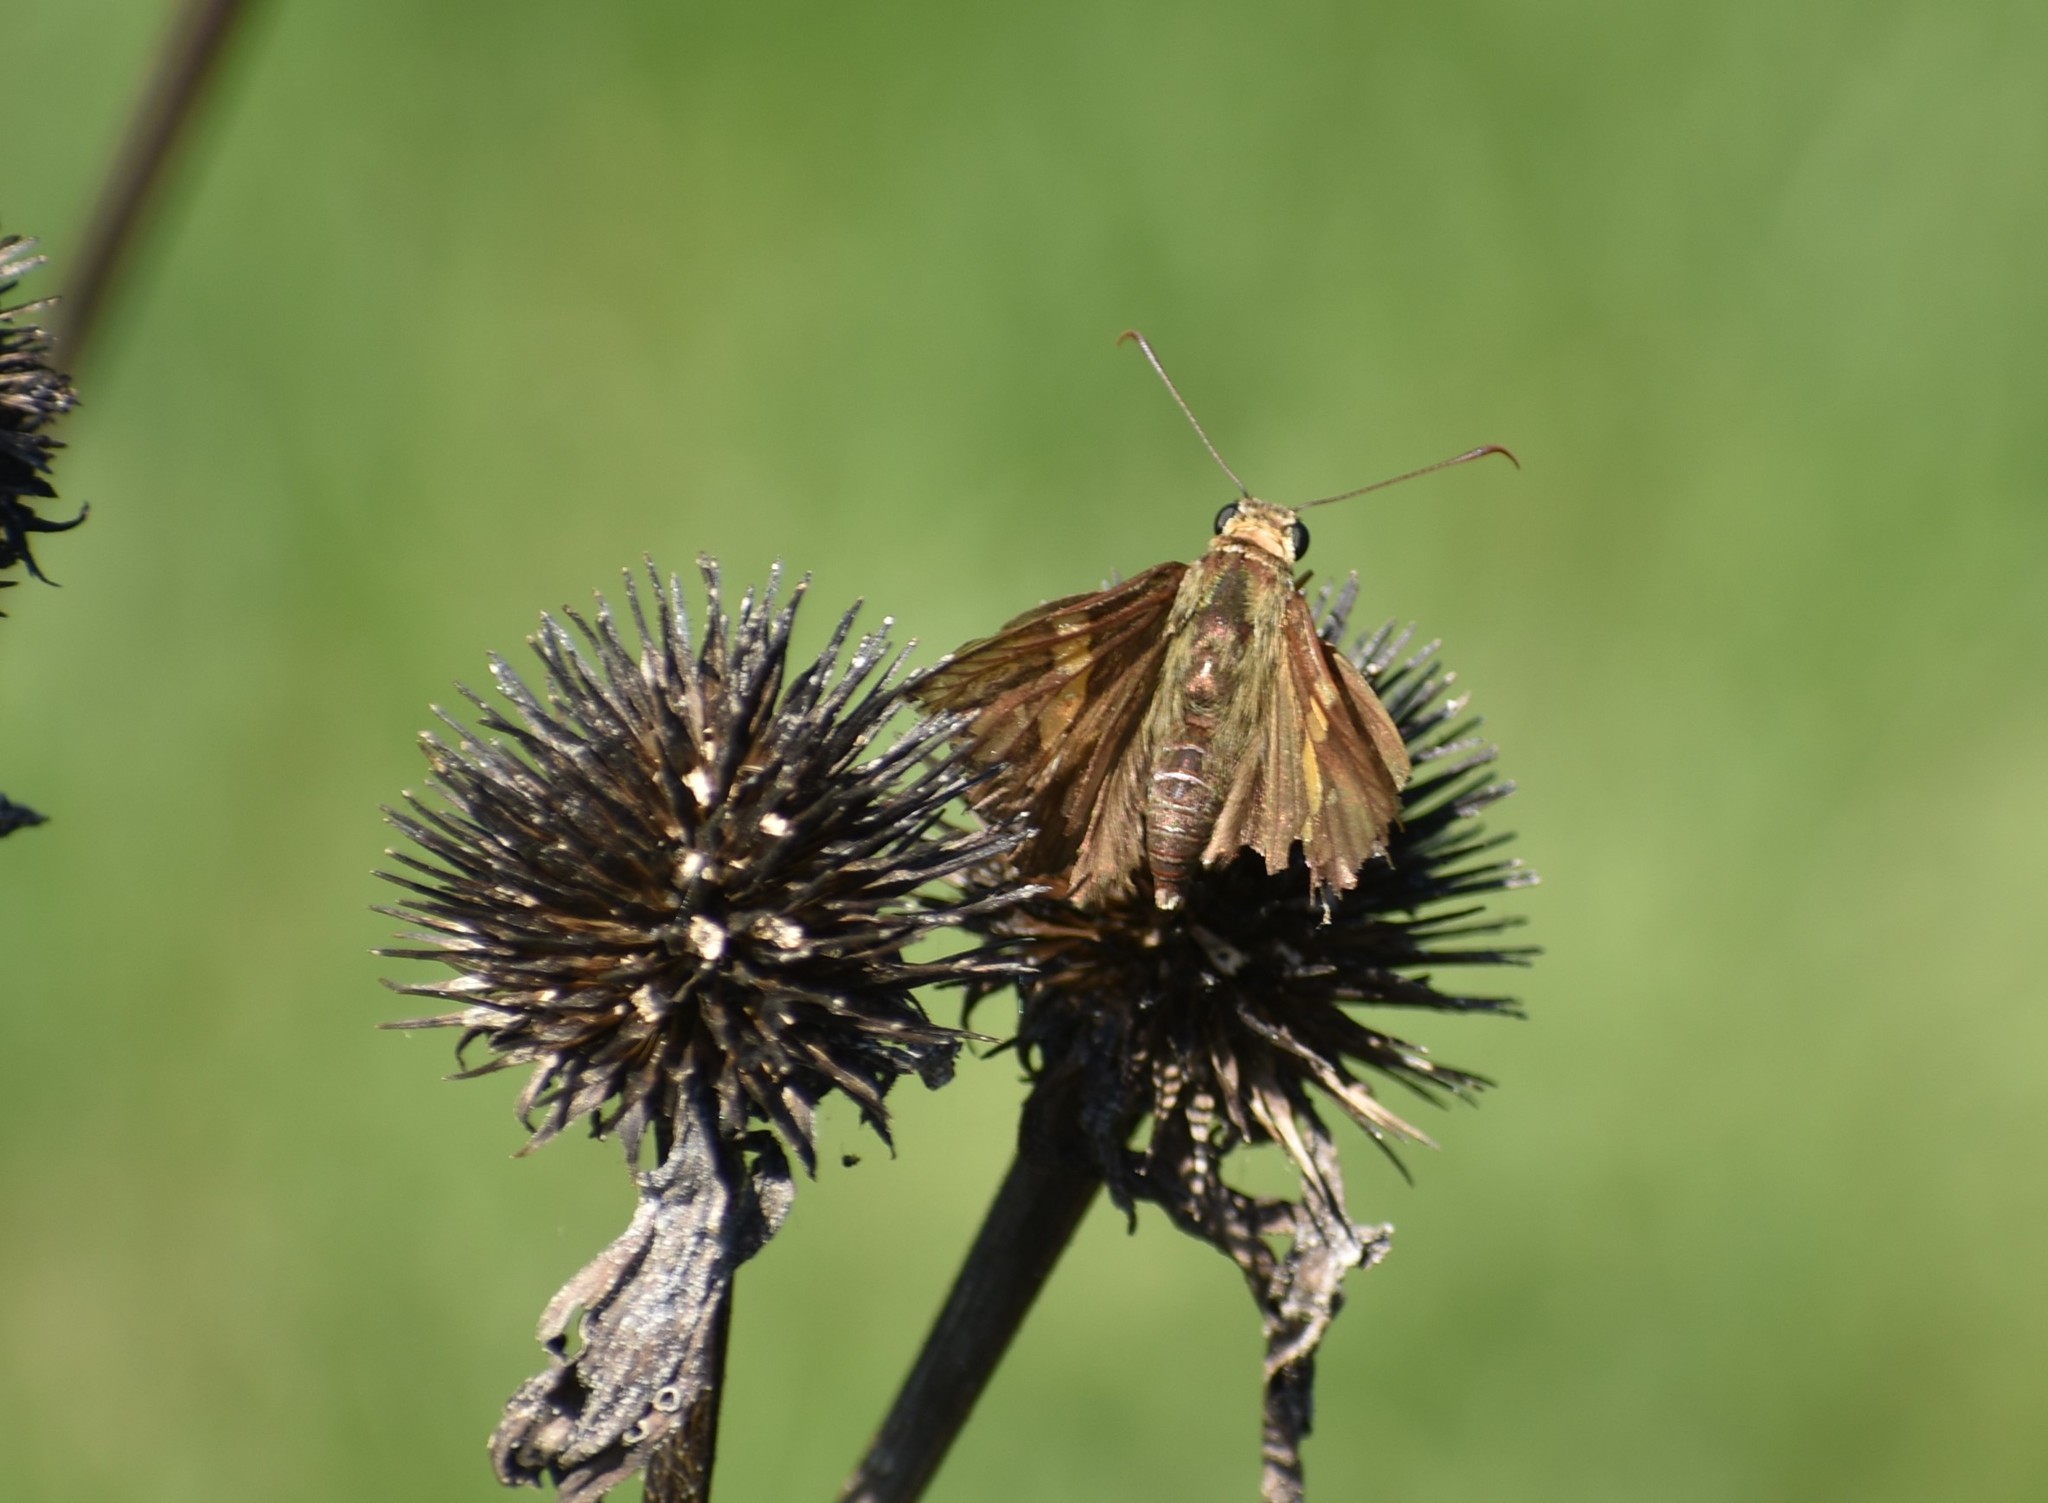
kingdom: Animalia
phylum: Arthropoda
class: Insecta
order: Lepidoptera
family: Hesperiidae
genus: Epargyreus
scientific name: Epargyreus clarus
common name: Silver-spotted skipper
